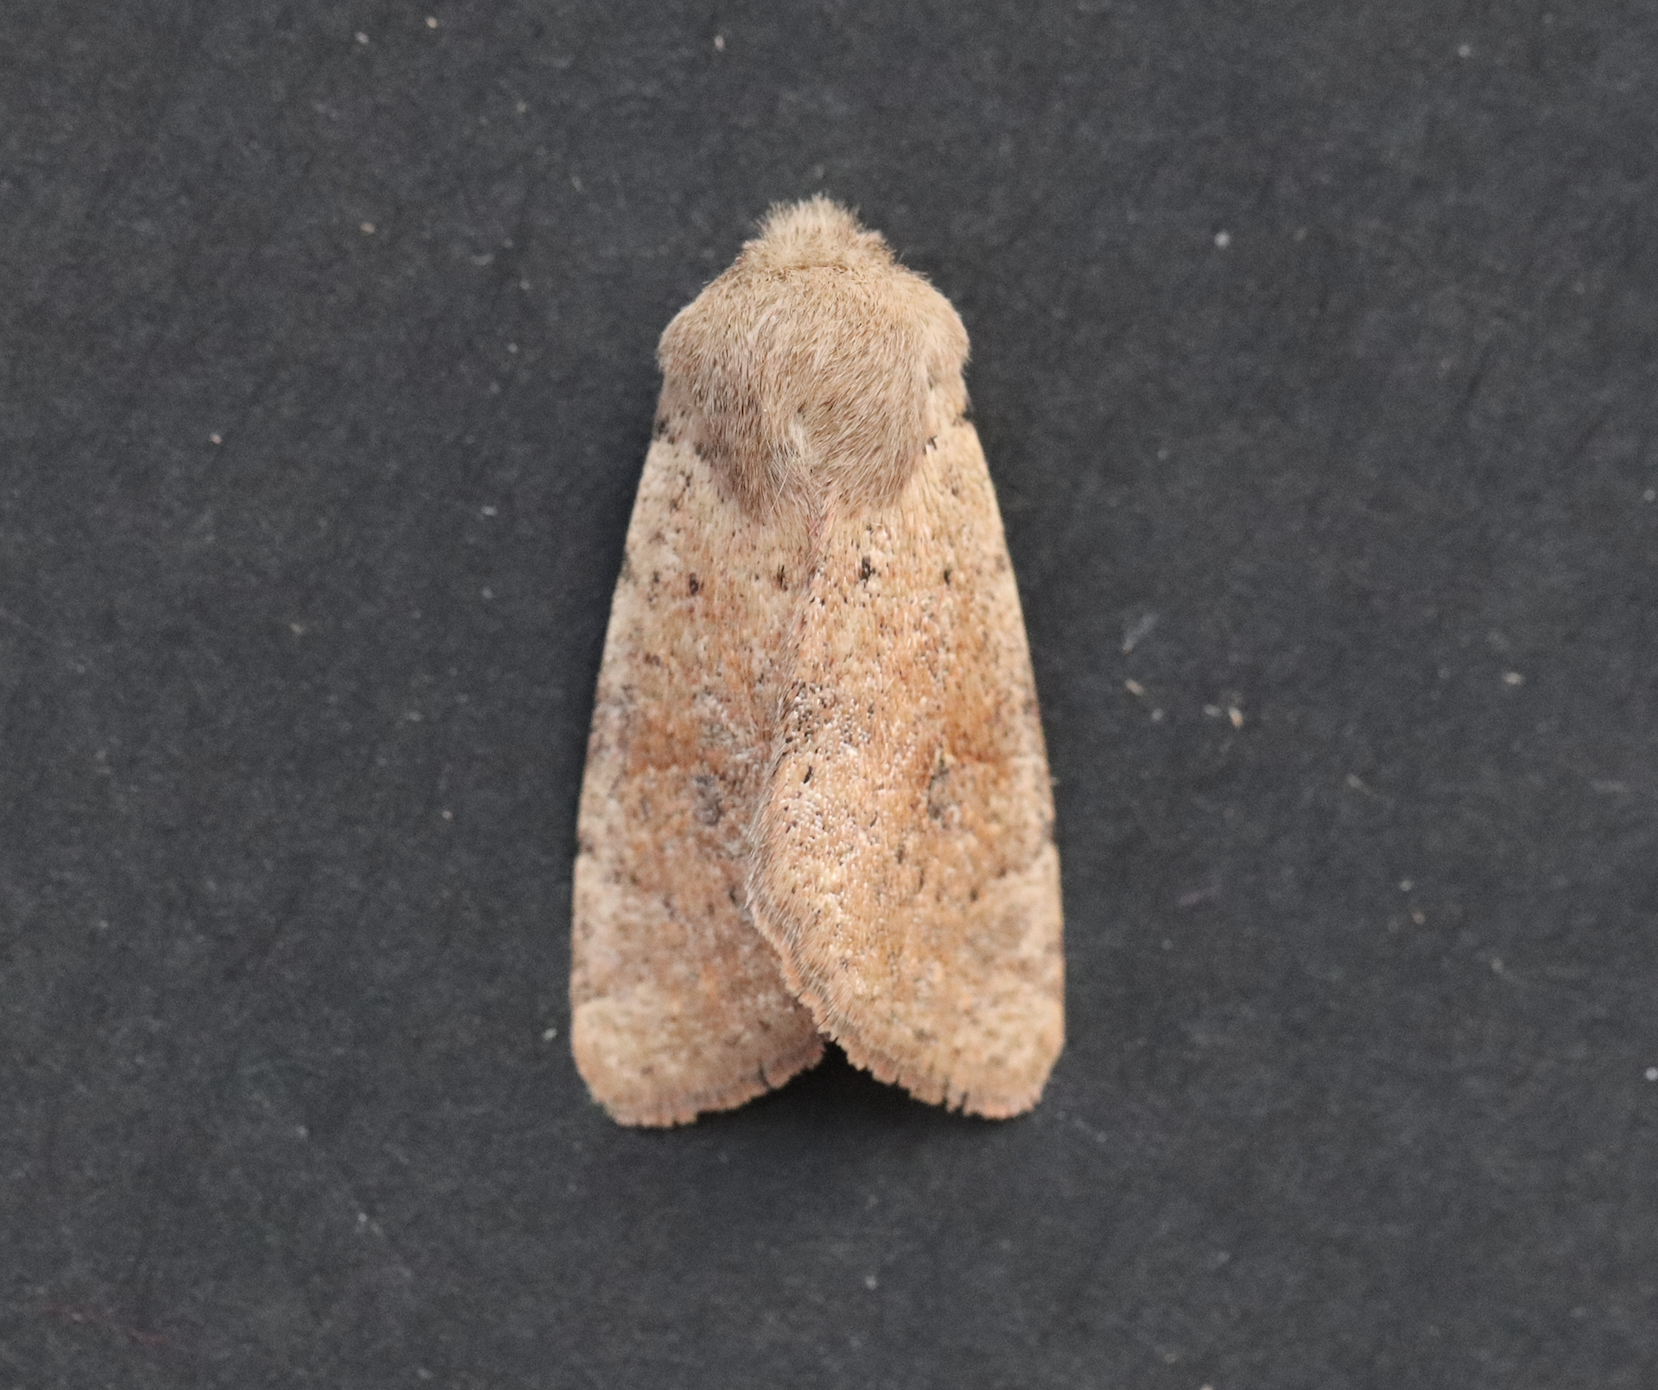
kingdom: Animalia
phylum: Arthropoda
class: Insecta
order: Lepidoptera
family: Noctuidae
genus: Orthosia
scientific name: Orthosia cruda
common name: Small quaker
